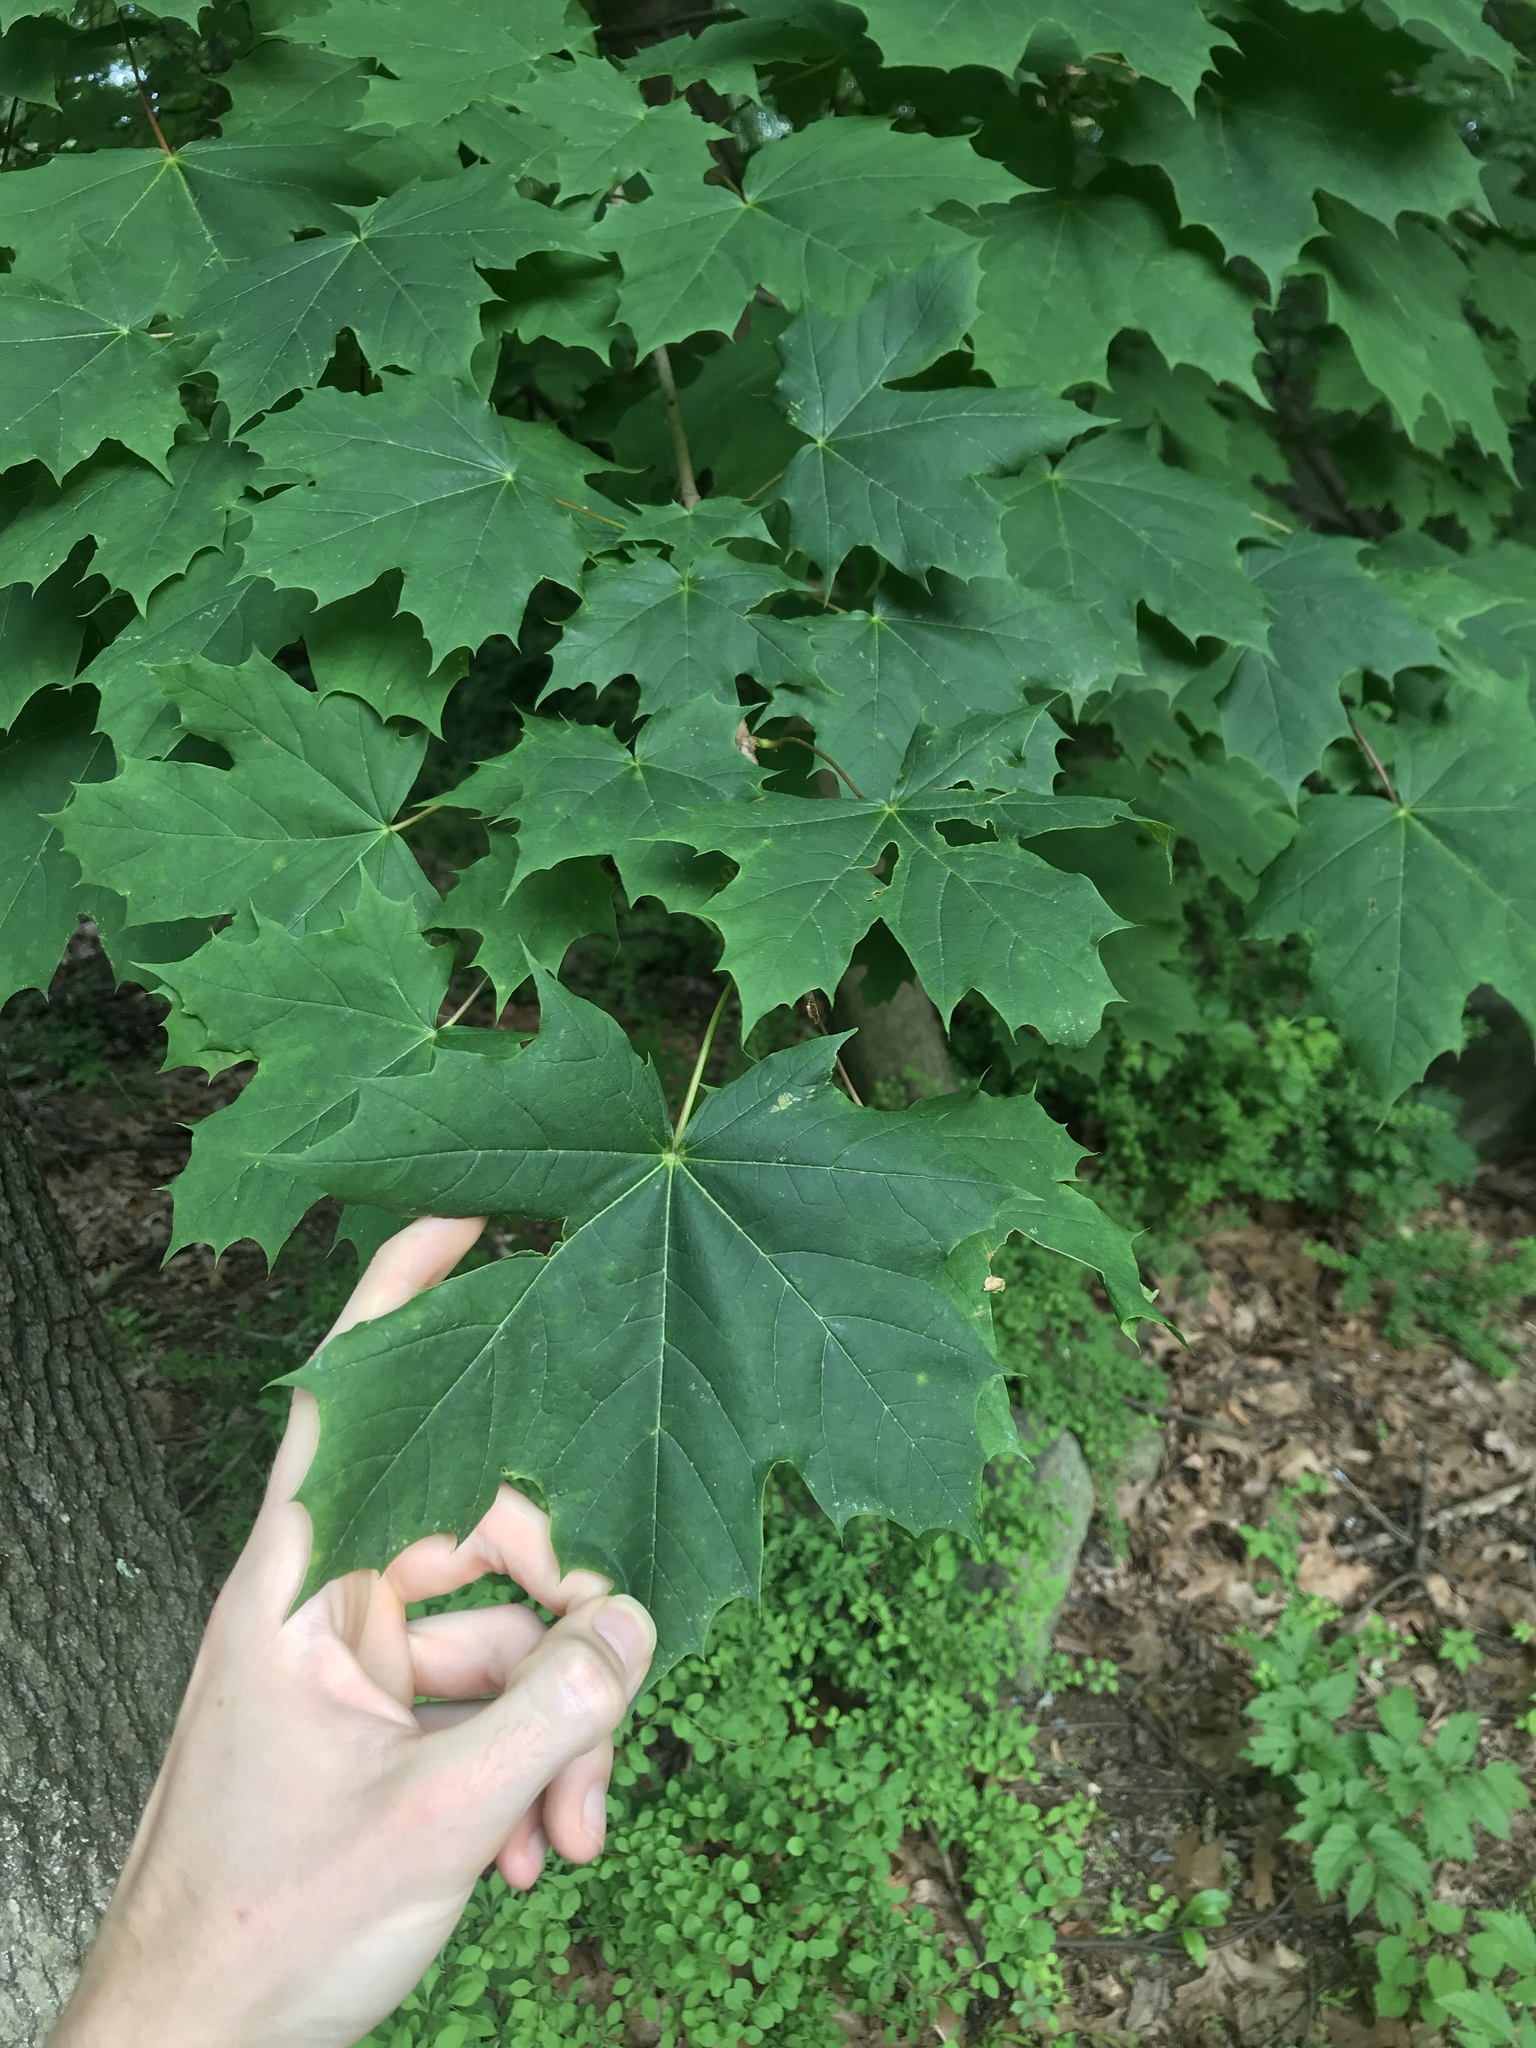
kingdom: Plantae
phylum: Tracheophyta
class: Magnoliopsida
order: Sapindales
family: Sapindaceae
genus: Acer
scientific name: Acer platanoides
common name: Norway maple
